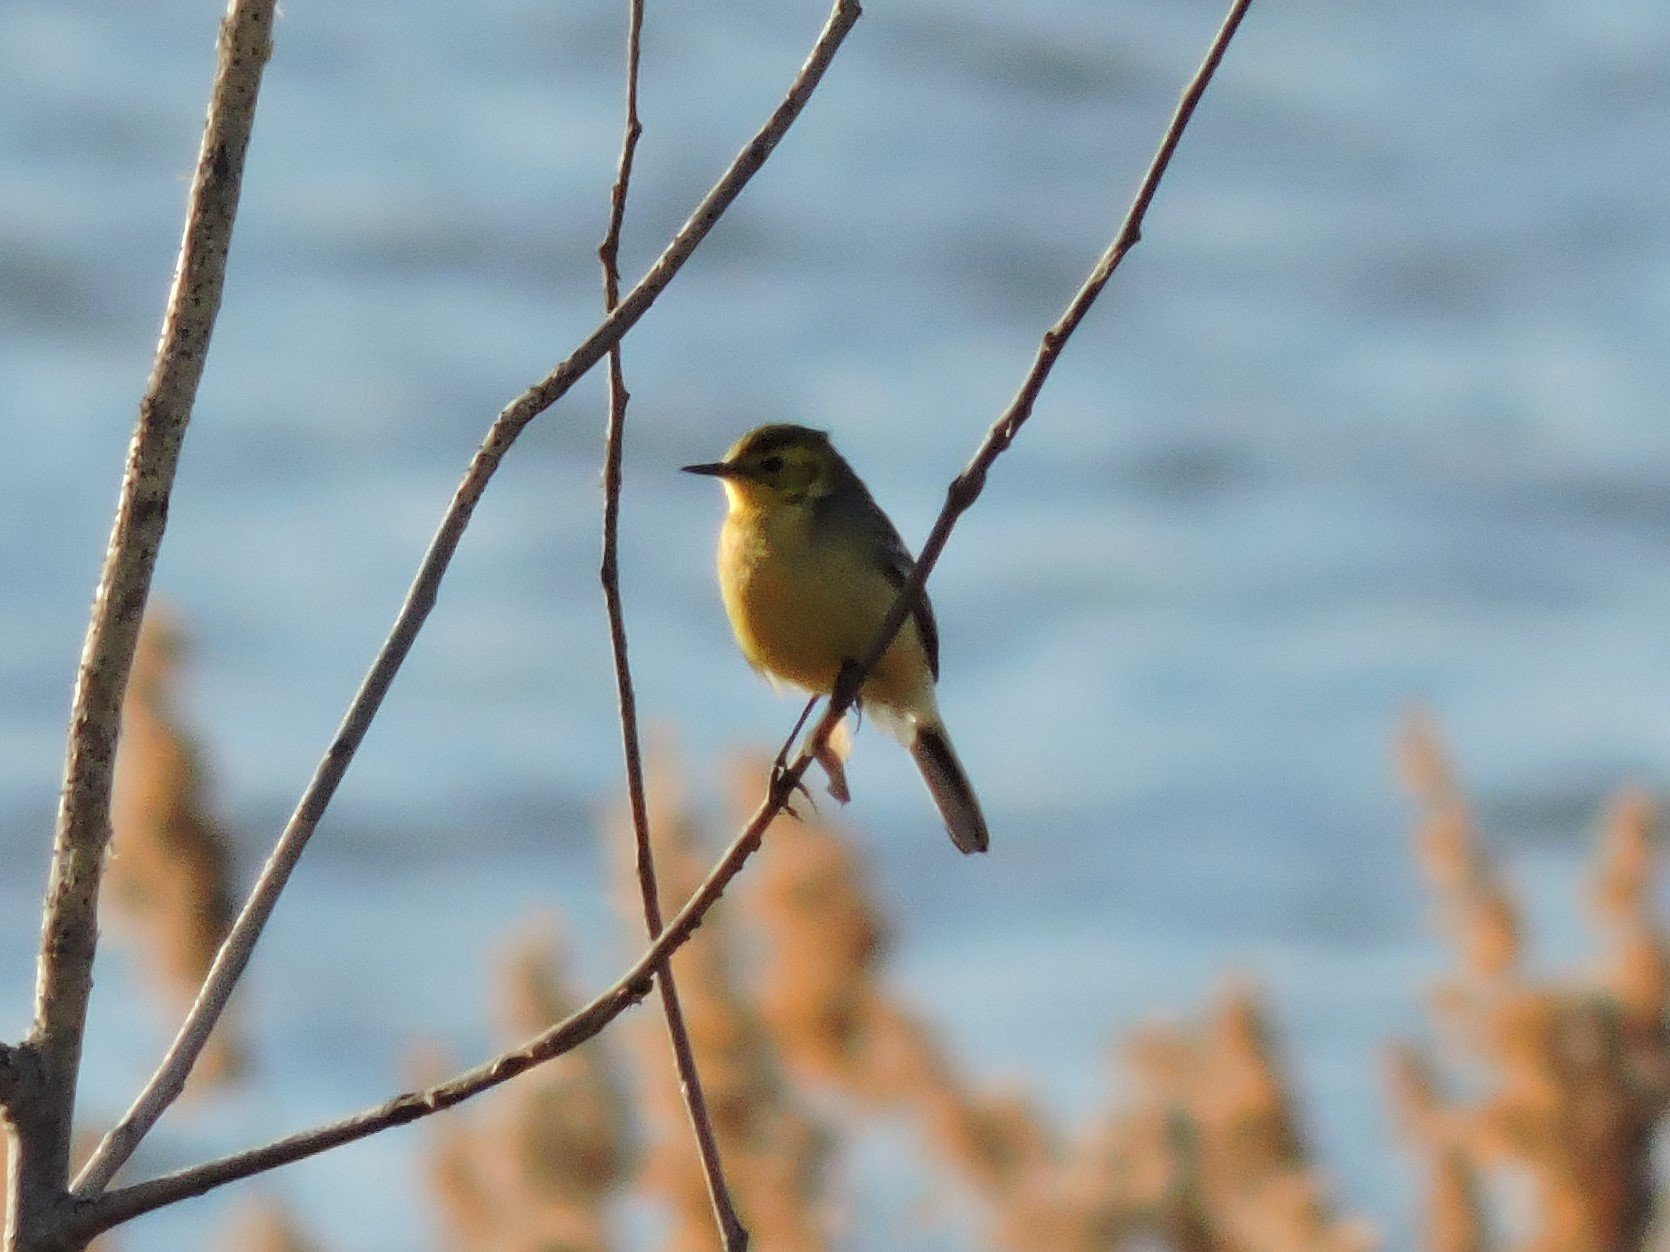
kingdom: Animalia
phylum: Chordata
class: Aves
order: Passeriformes
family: Motacillidae
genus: Motacilla
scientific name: Motacilla citreola
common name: Citrine wagtail
